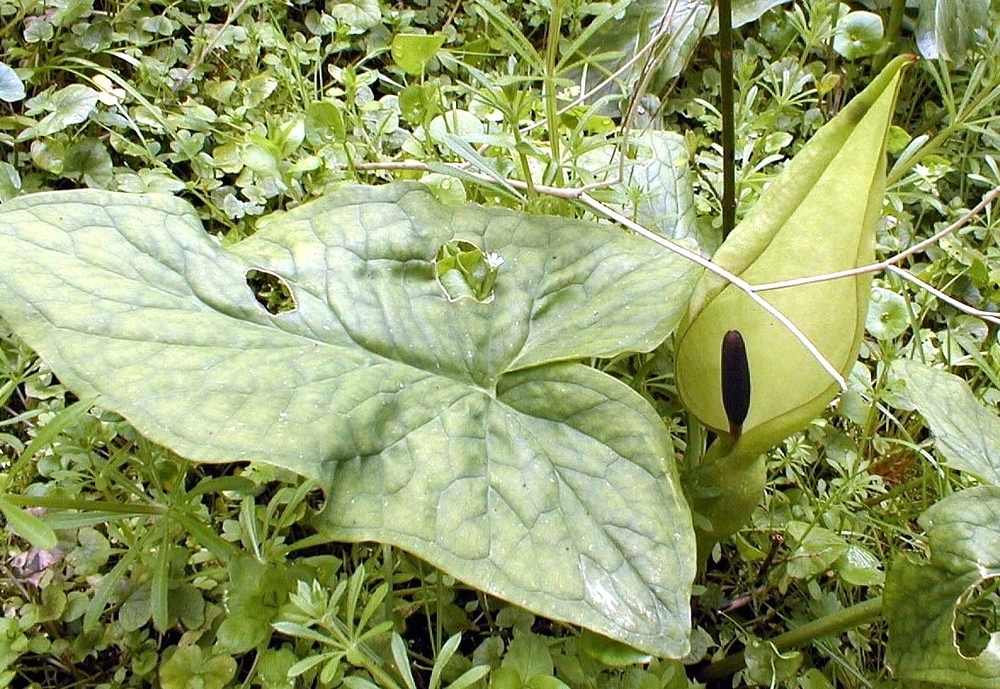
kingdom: Plantae
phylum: Tracheophyta
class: Liliopsida
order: Alismatales
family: Araceae
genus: Arum
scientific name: Arum maculatum
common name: Lords-and-ladies
